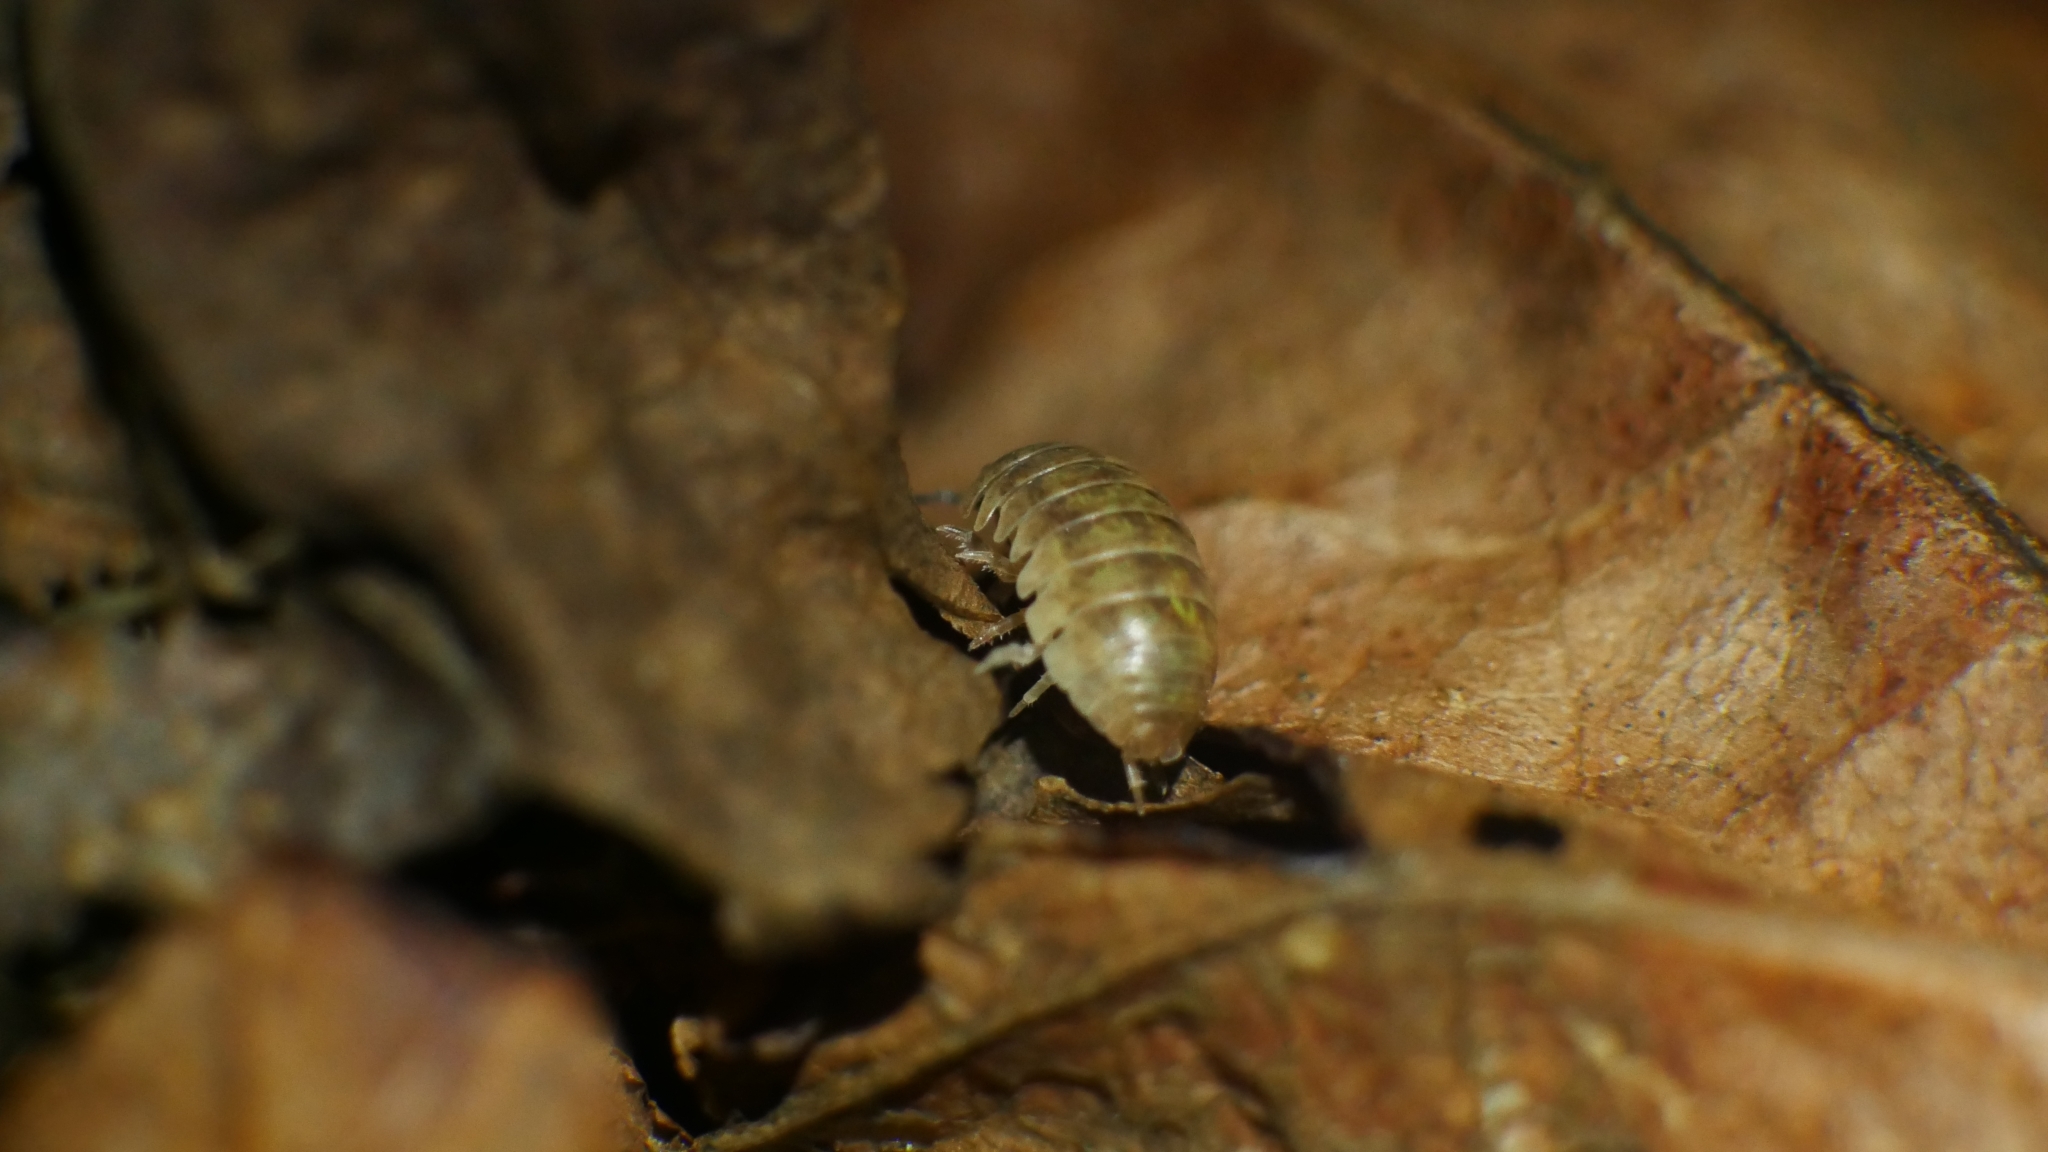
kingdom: Animalia
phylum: Arthropoda
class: Malacostraca
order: Isopoda
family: Armadillidiidae
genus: Armadillidium
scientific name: Armadillidium vulgare
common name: Common pill woodlouse
